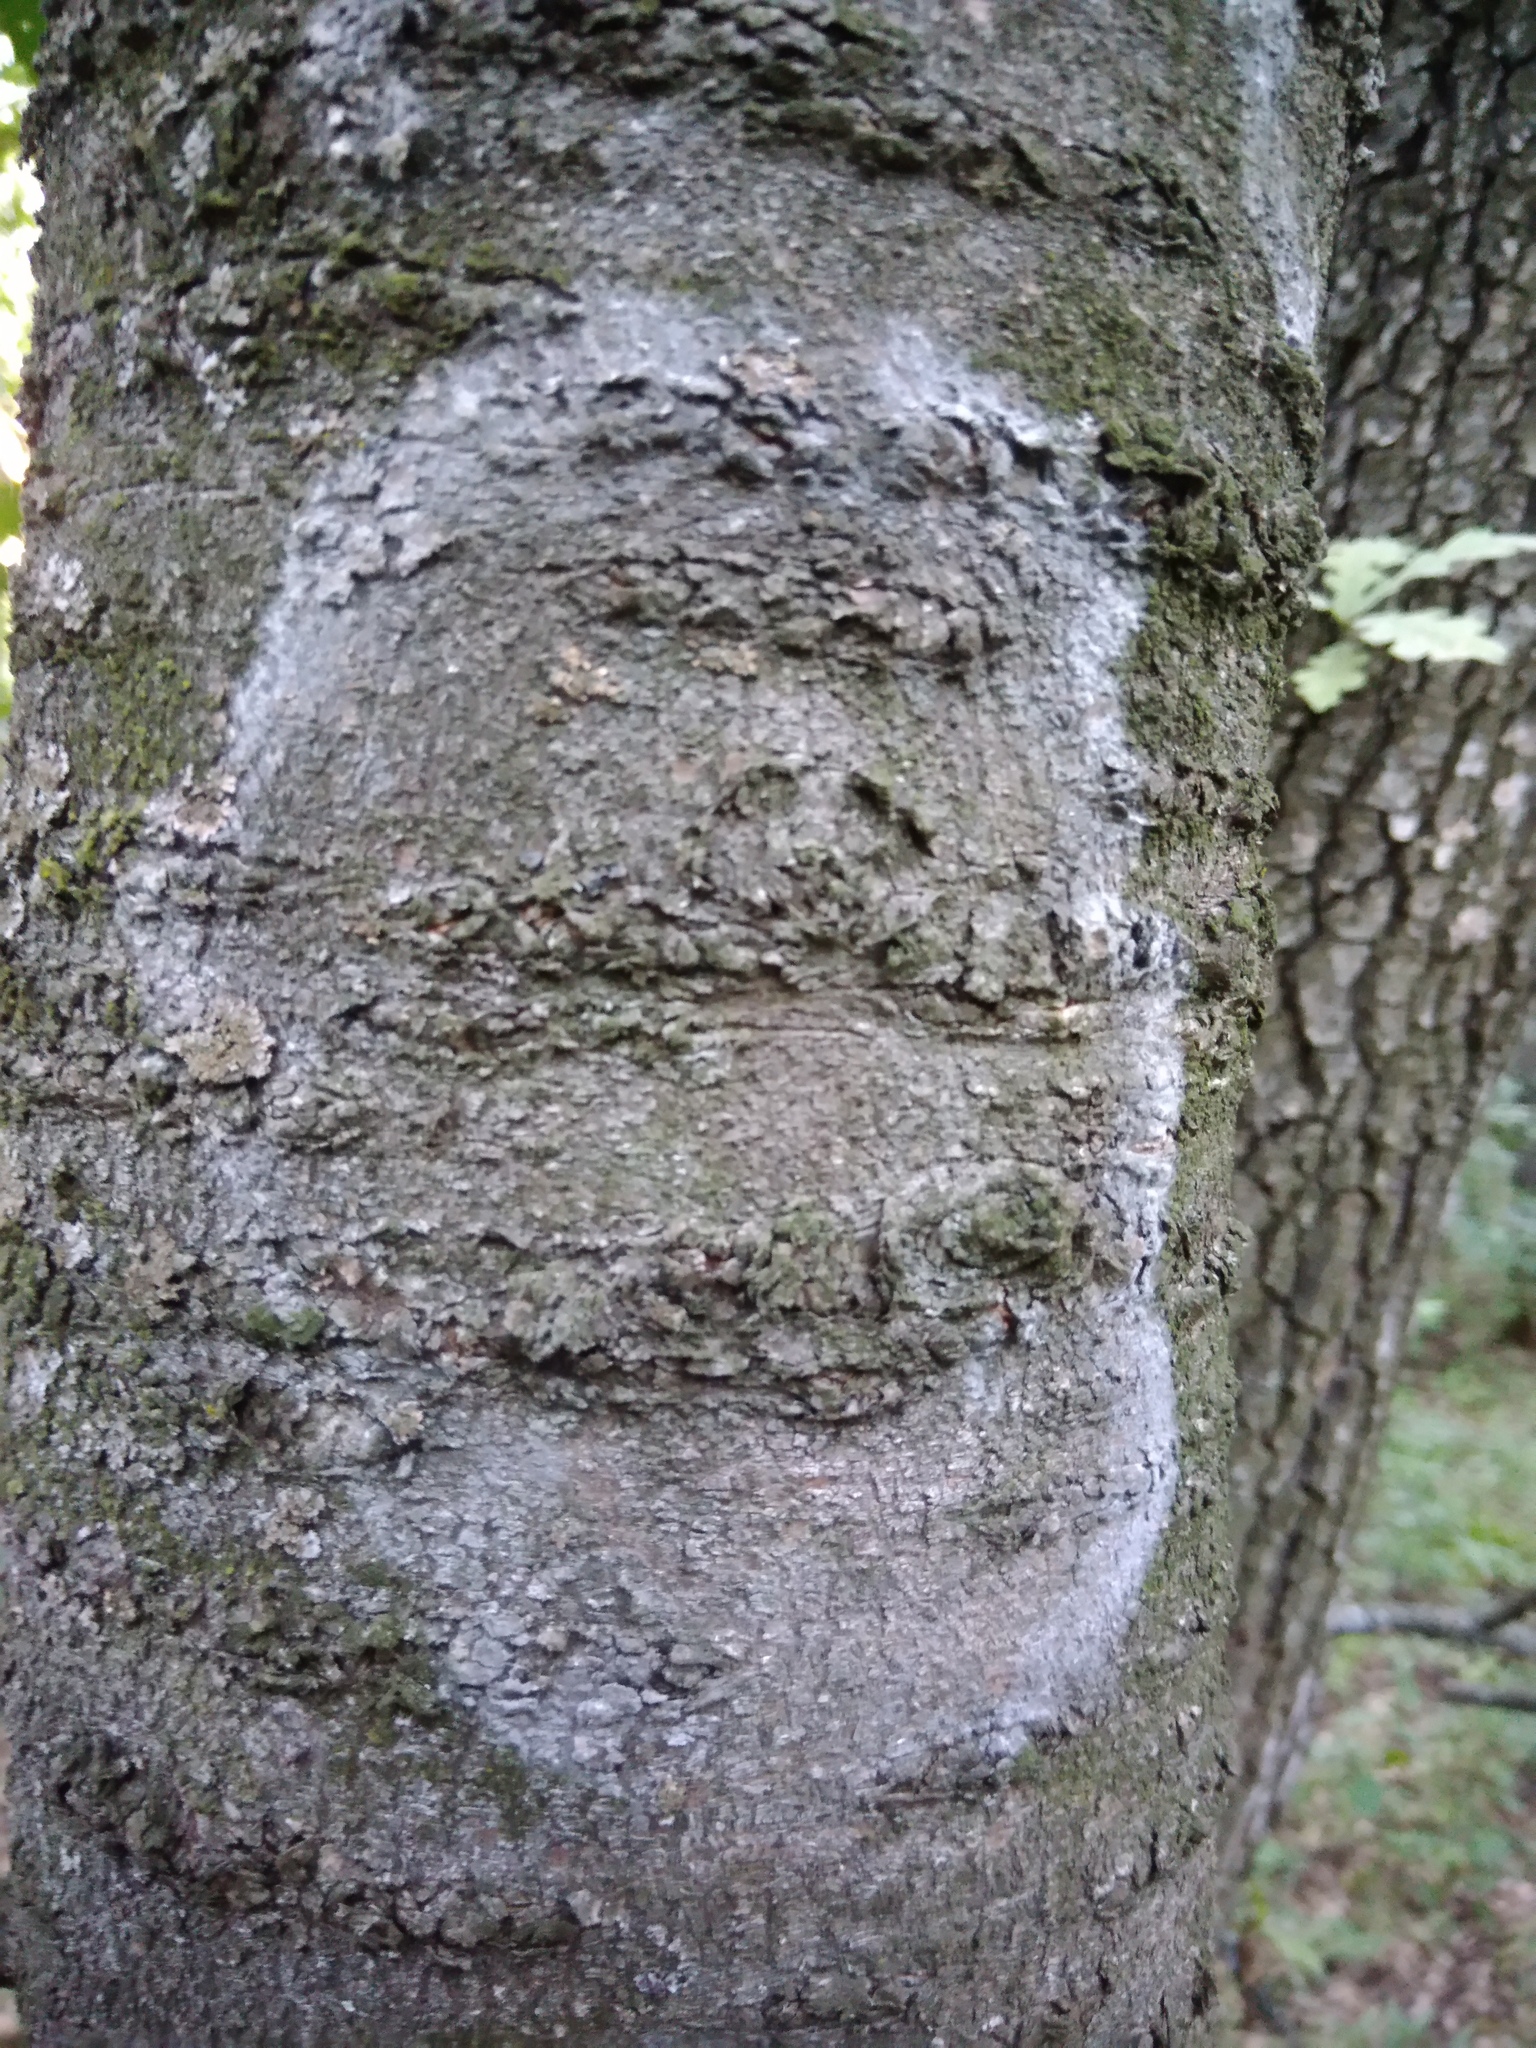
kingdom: Fungi
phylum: Basidiomycota
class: Agaricomycetes
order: Atheliales
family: Atheliaceae
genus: Athelia
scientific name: Athelia arachnoidea
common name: Candelabra duster
